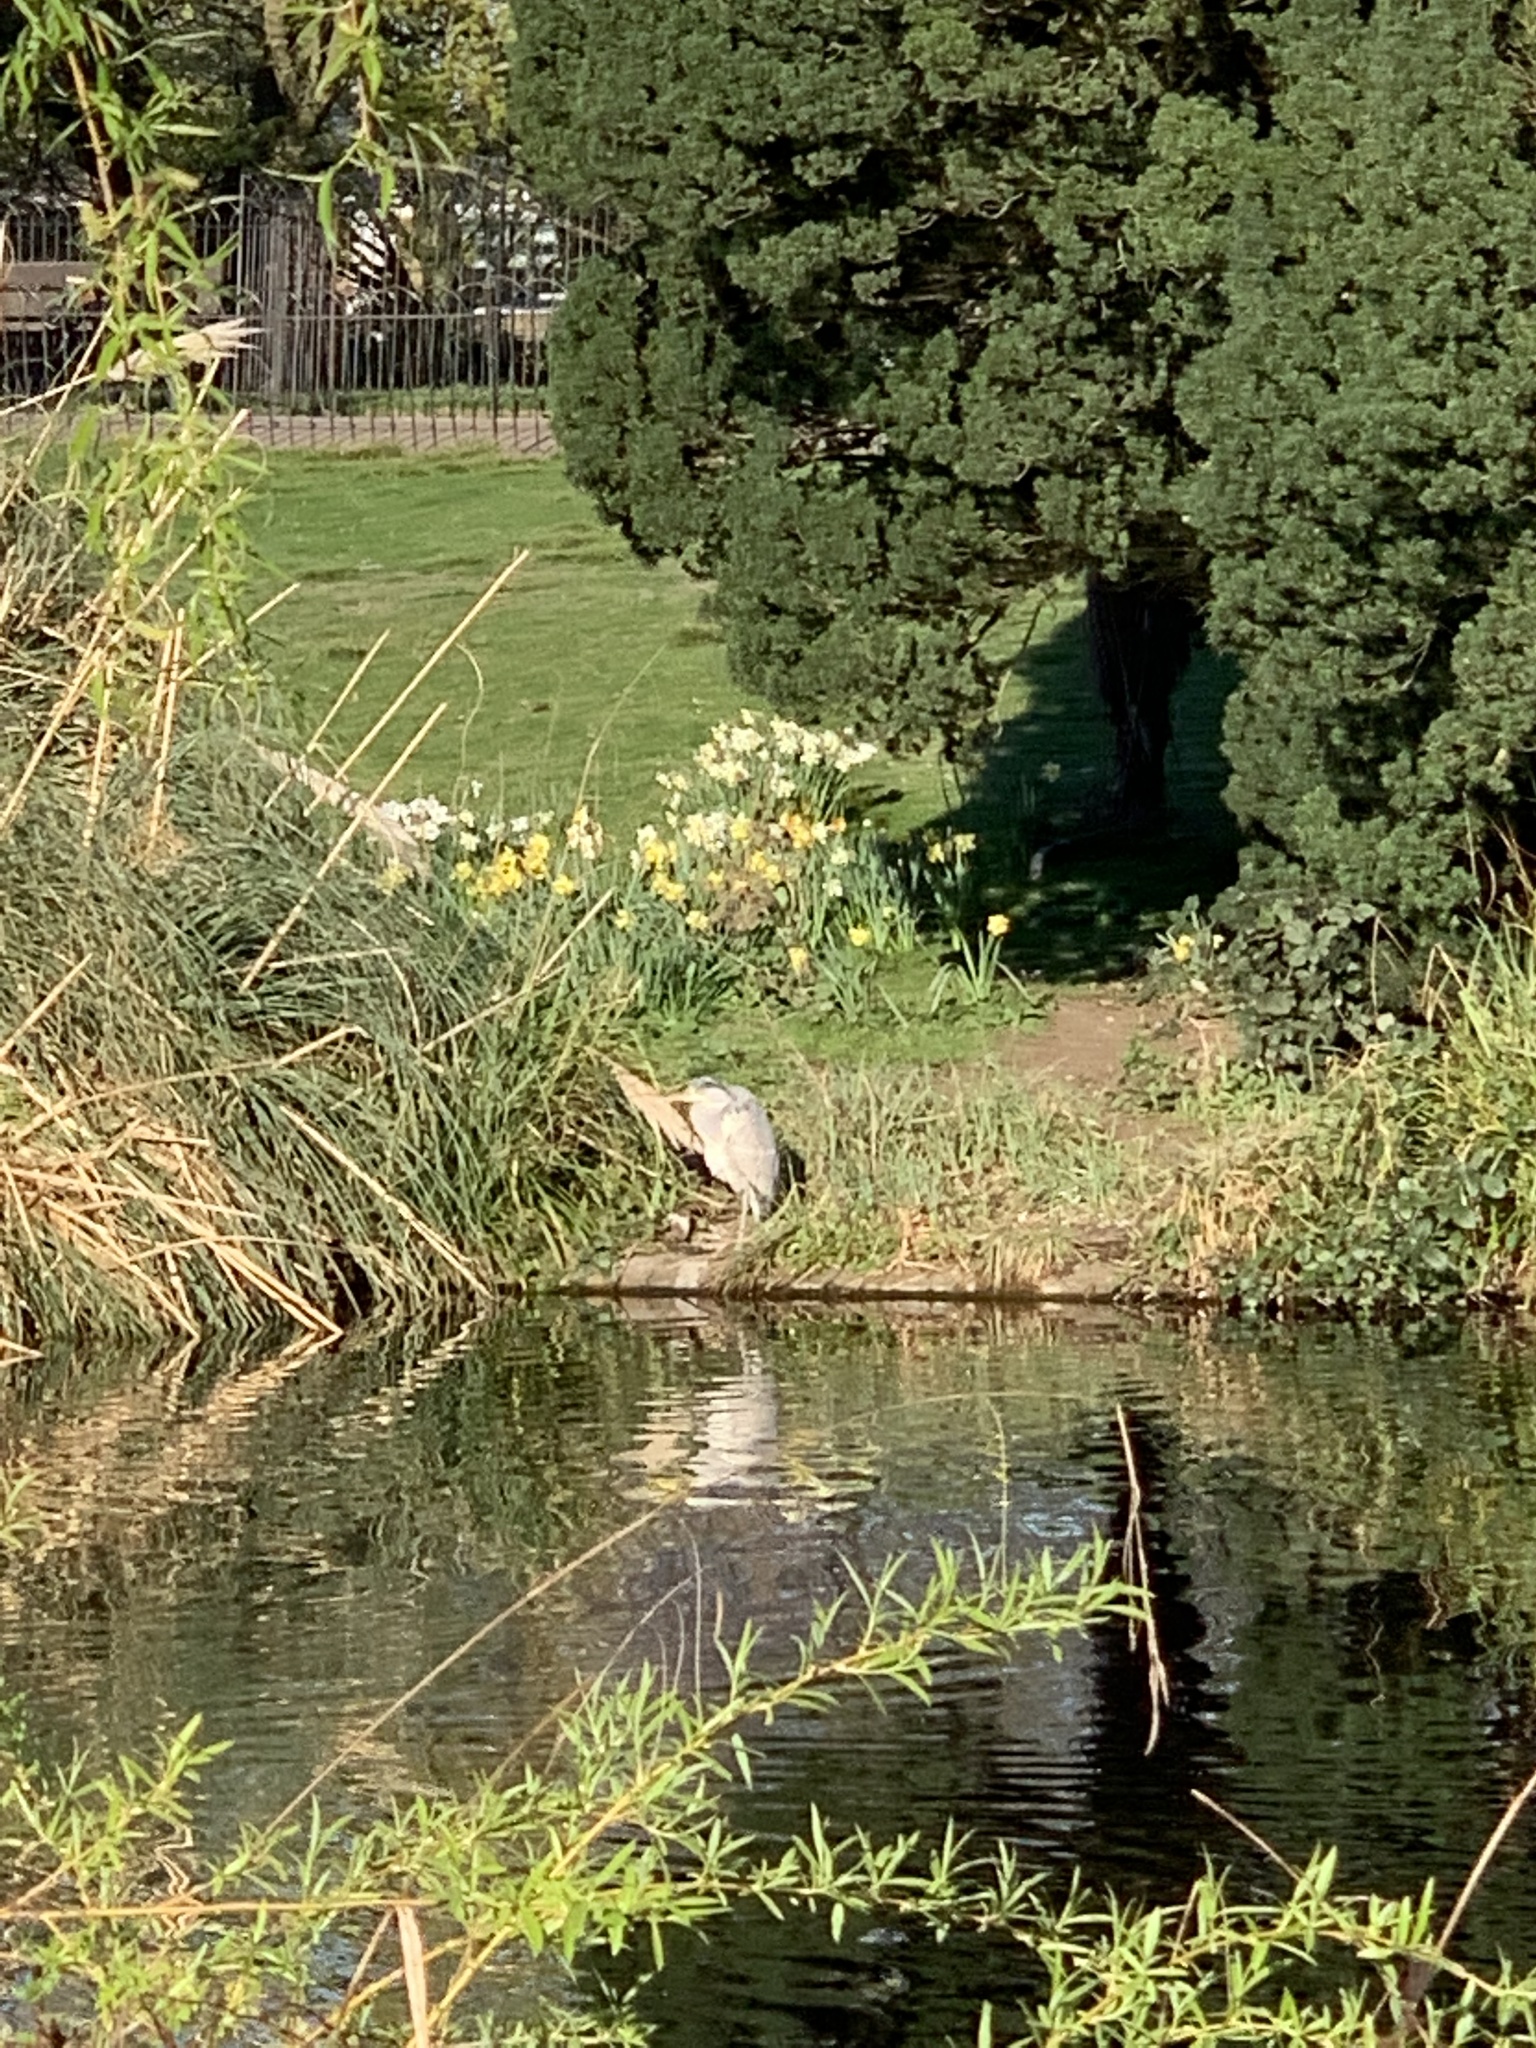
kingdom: Animalia
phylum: Chordata
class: Aves
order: Pelecaniformes
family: Ardeidae
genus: Ardea
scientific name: Ardea cinerea
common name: Grey heron
